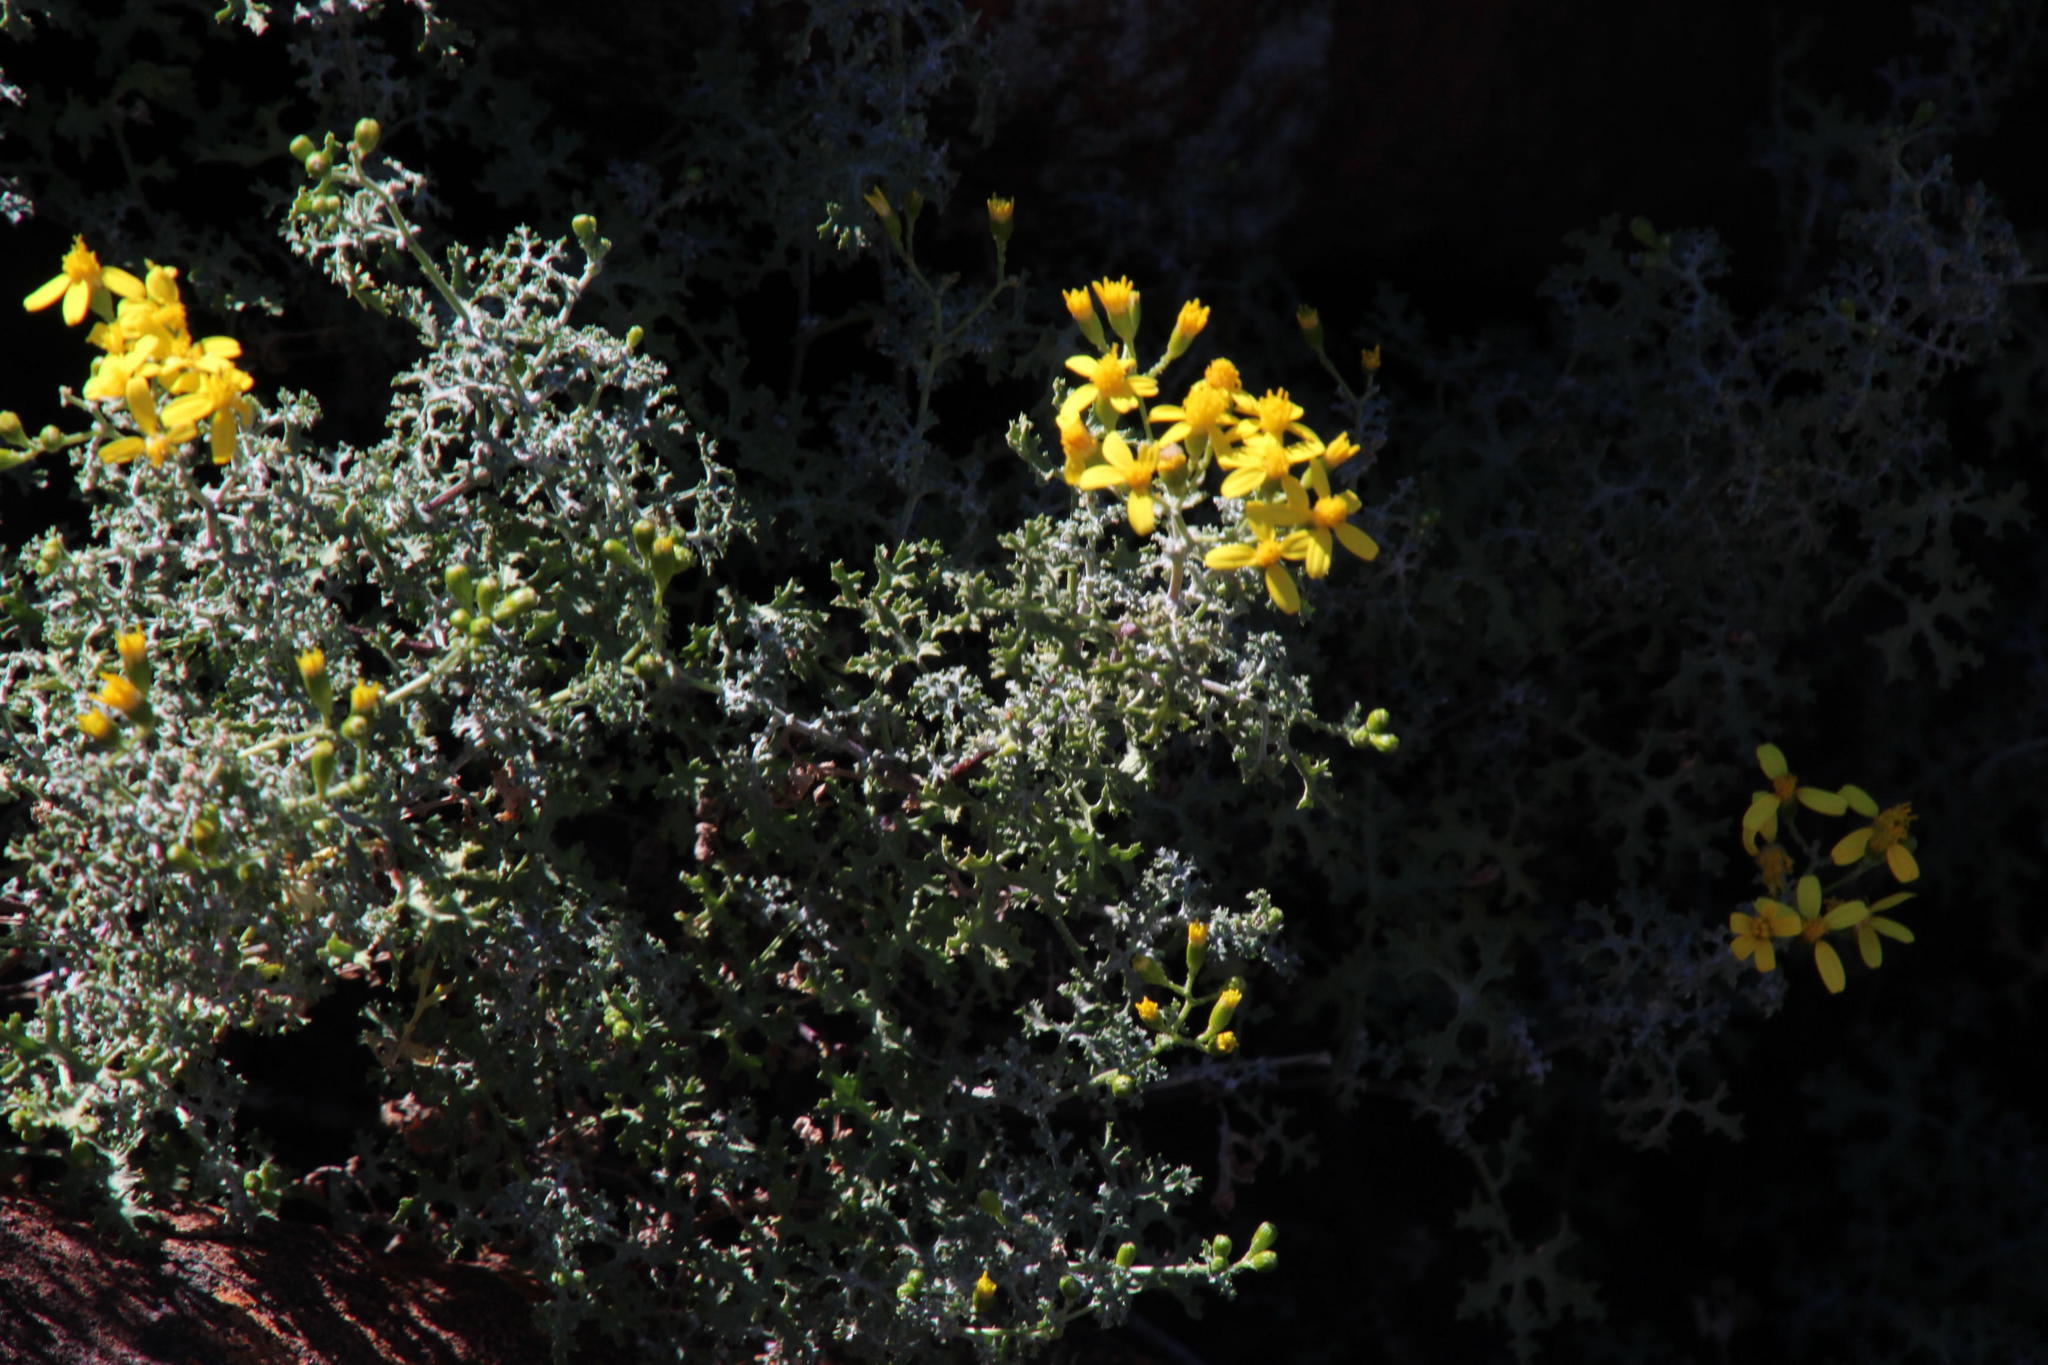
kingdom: Plantae
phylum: Tracheophyta
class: Magnoliopsida
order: Asterales
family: Asteraceae
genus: Cineraria
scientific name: Cineraria lyratiformis
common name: Cineraria
